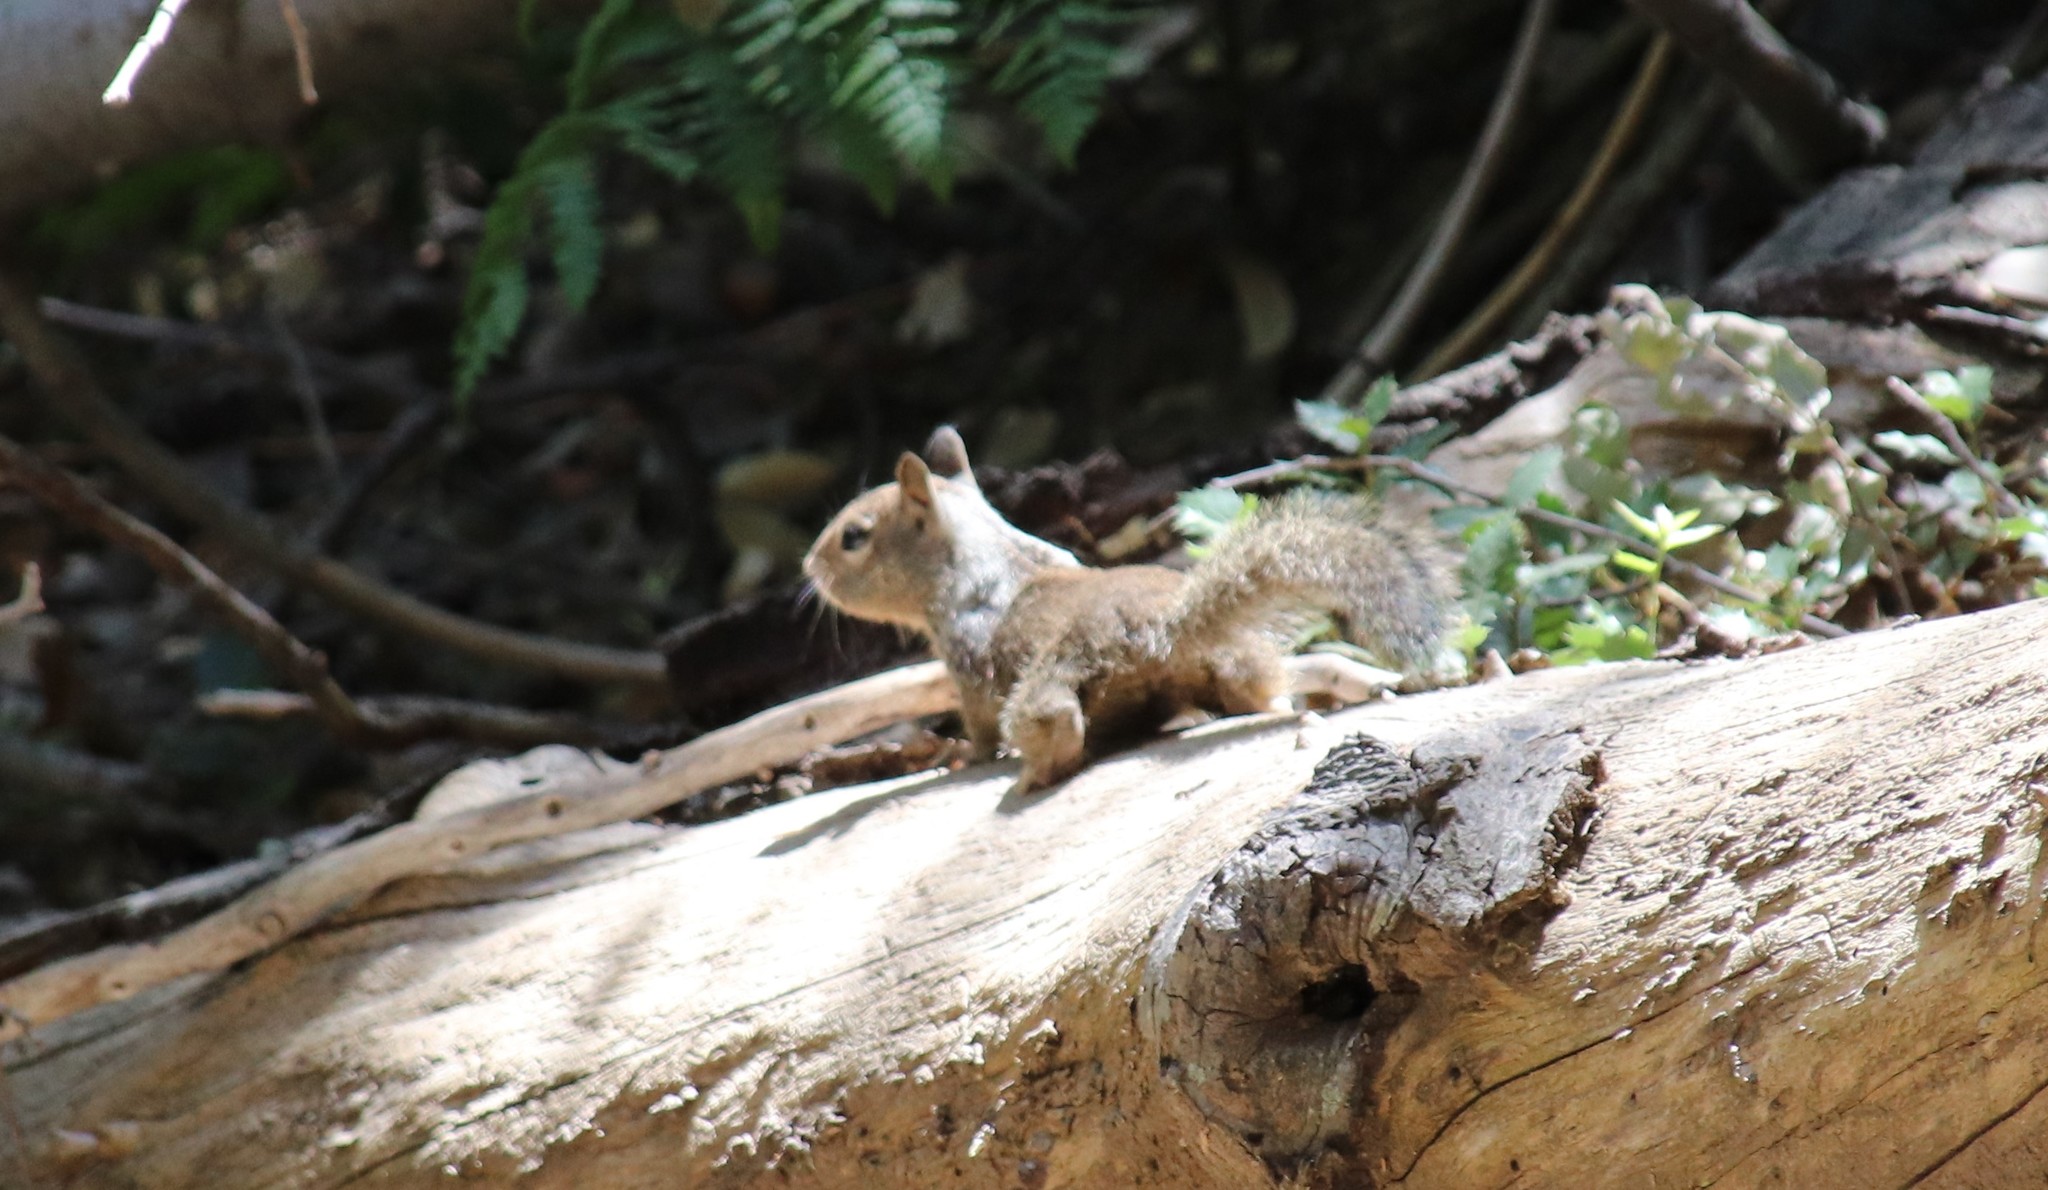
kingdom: Animalia
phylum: Chordata
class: Mammalia
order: Rodentia
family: Sciuridae
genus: Otospermophilus
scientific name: Otospermophilus beecheyi
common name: California ground squirrel
